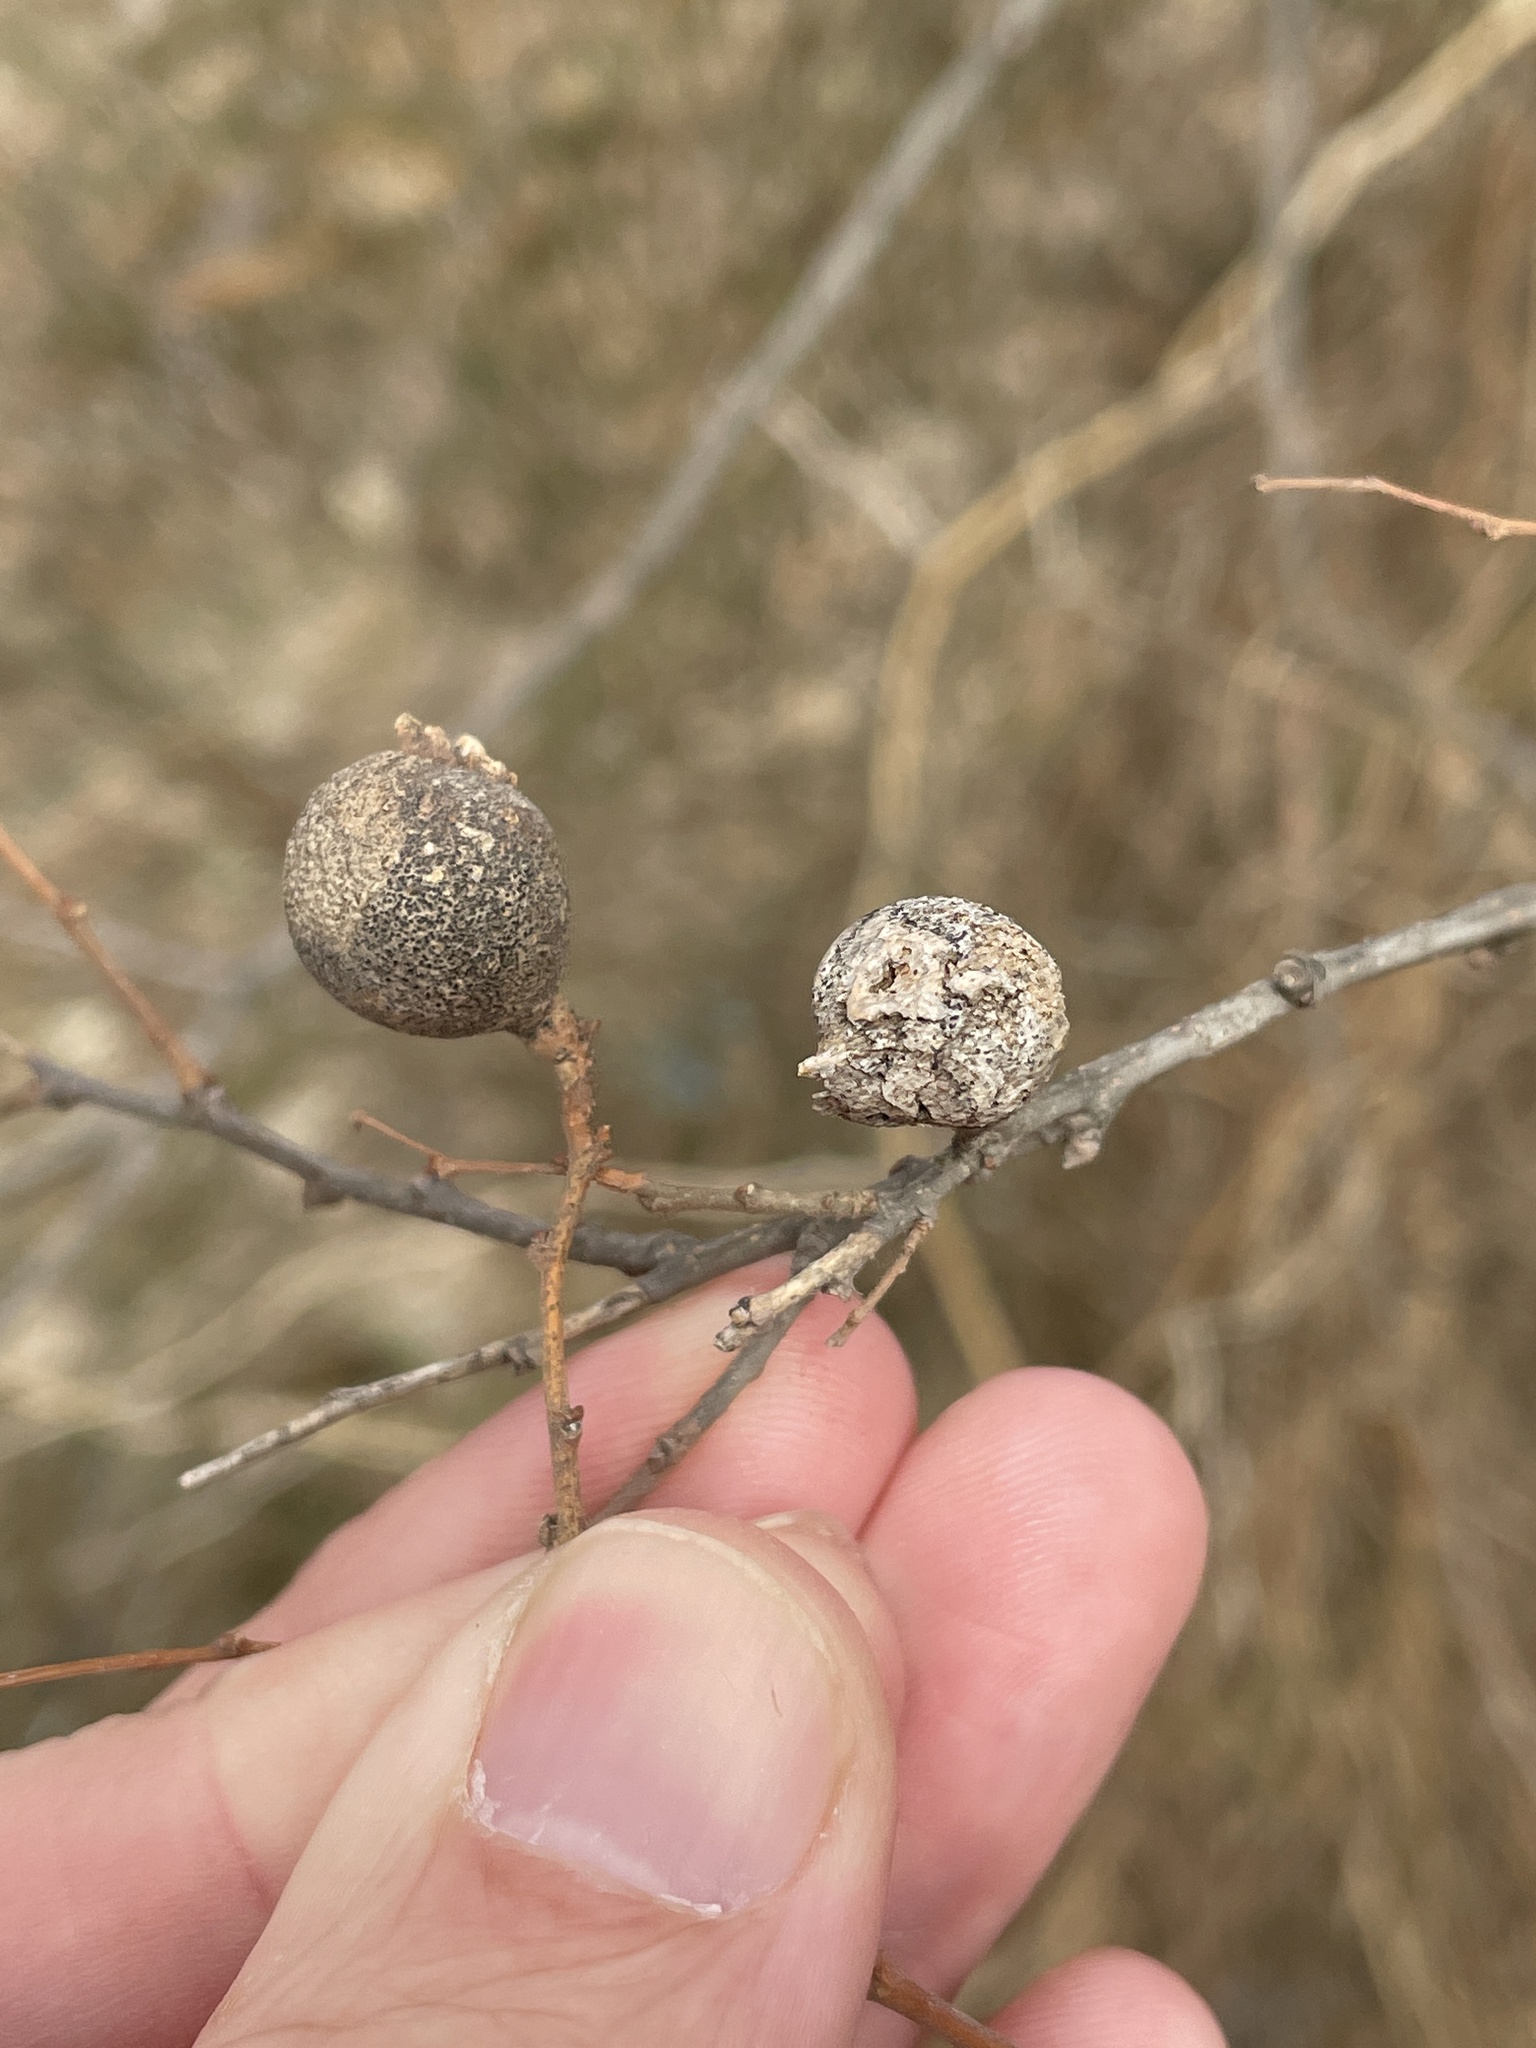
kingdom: Animalia
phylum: Arthropoda
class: Insecta
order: Hemiptera
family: Aphalaridae
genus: Pachypsylla
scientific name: Pachypsylla venusta
